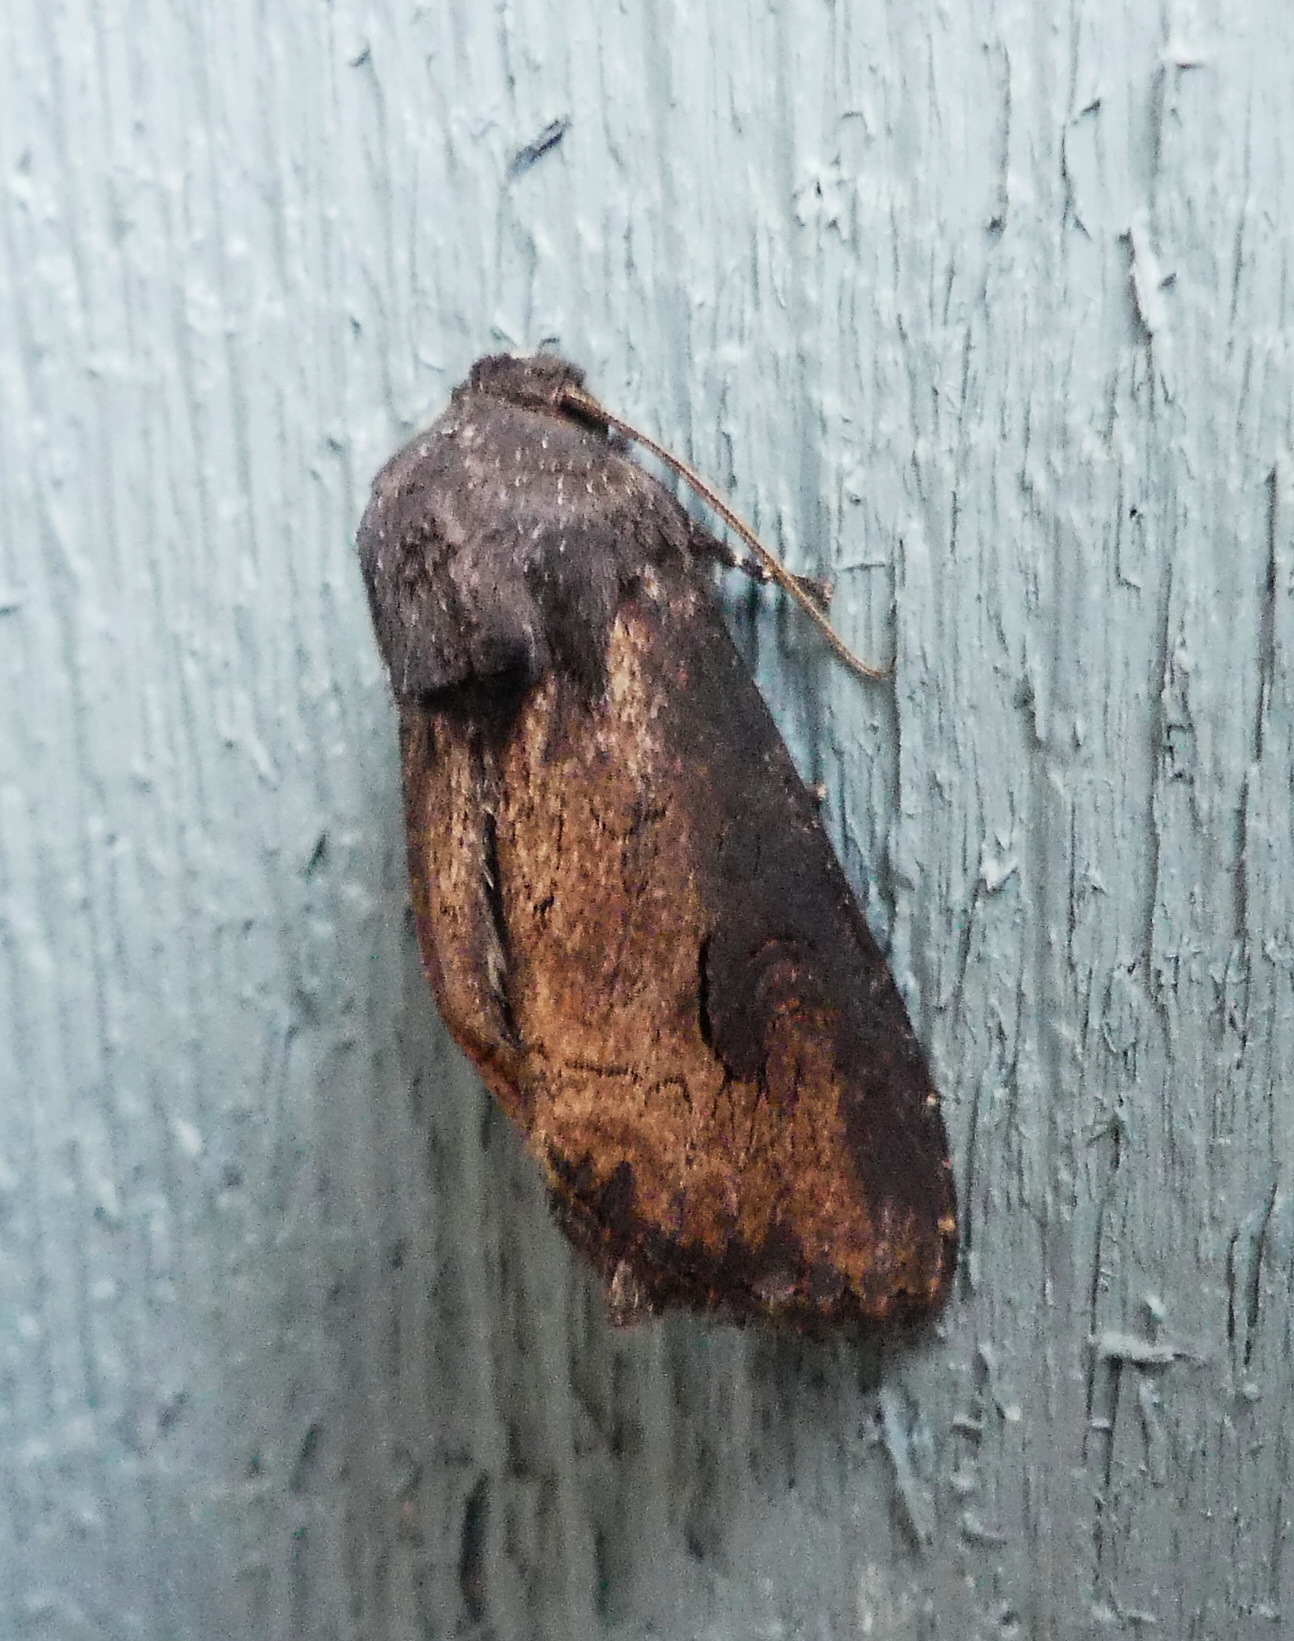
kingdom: Animalia
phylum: Arthropoda
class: Insecta
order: Lepidoptera
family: Noctuidae
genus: Macronoctua
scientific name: Macronoctua onusta
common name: Iris borer
